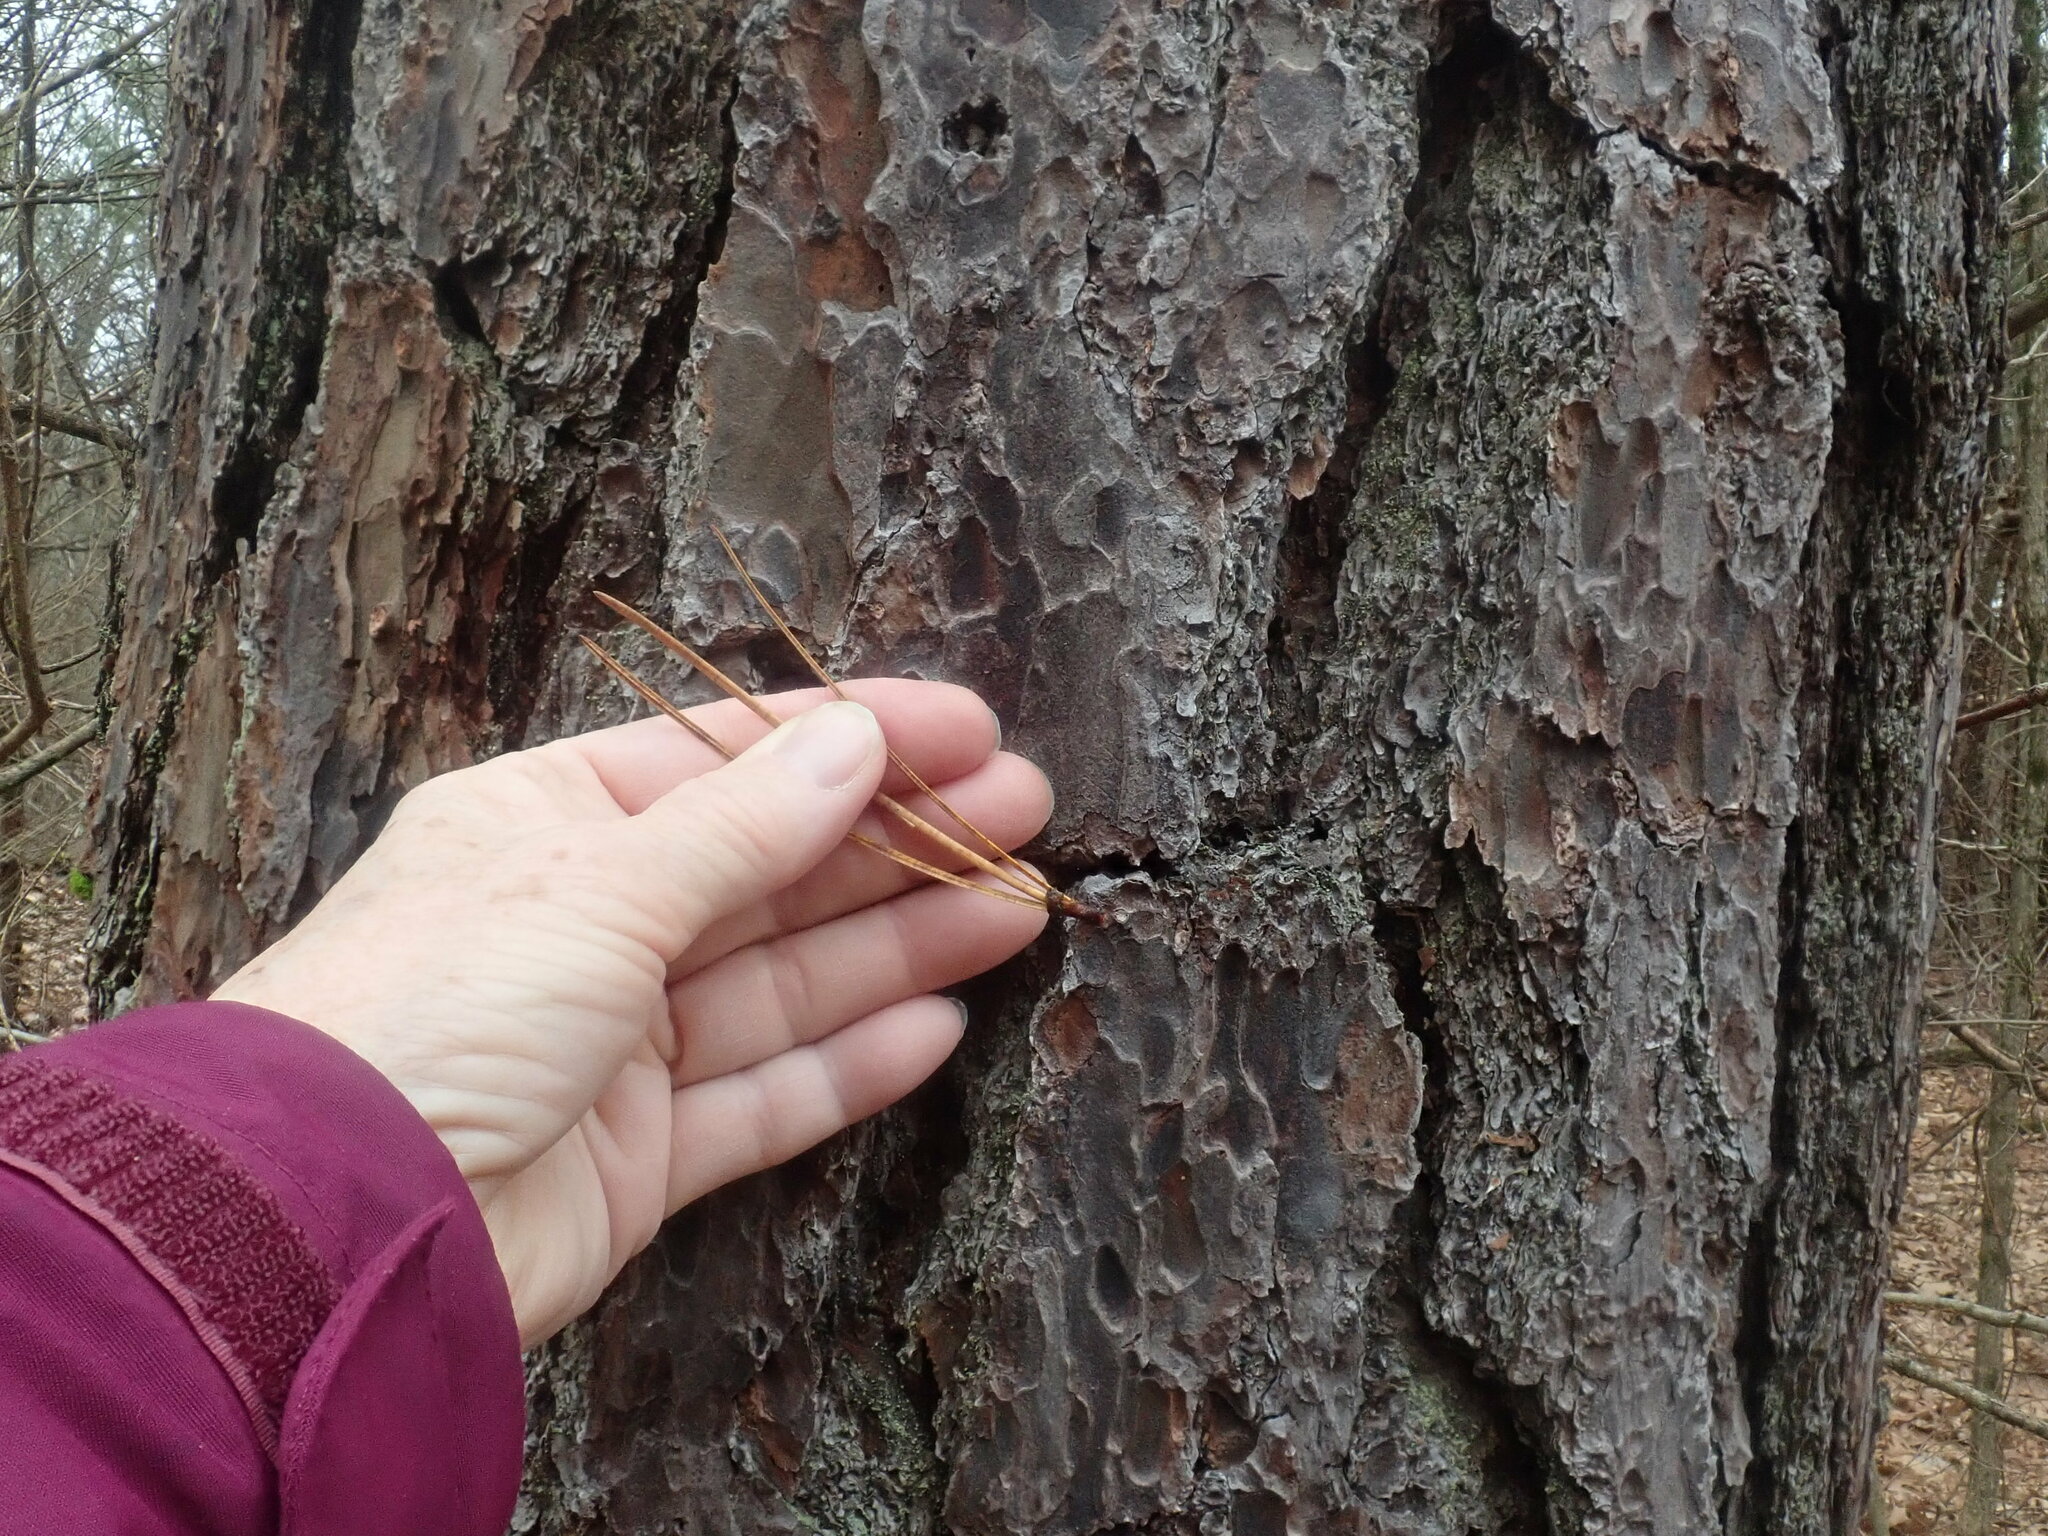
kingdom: Plantae
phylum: Tracheophyta
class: Pinopsida
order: Pinales
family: Pinaceae
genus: Pinus
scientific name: Pinus rigida
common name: Pitch pine
